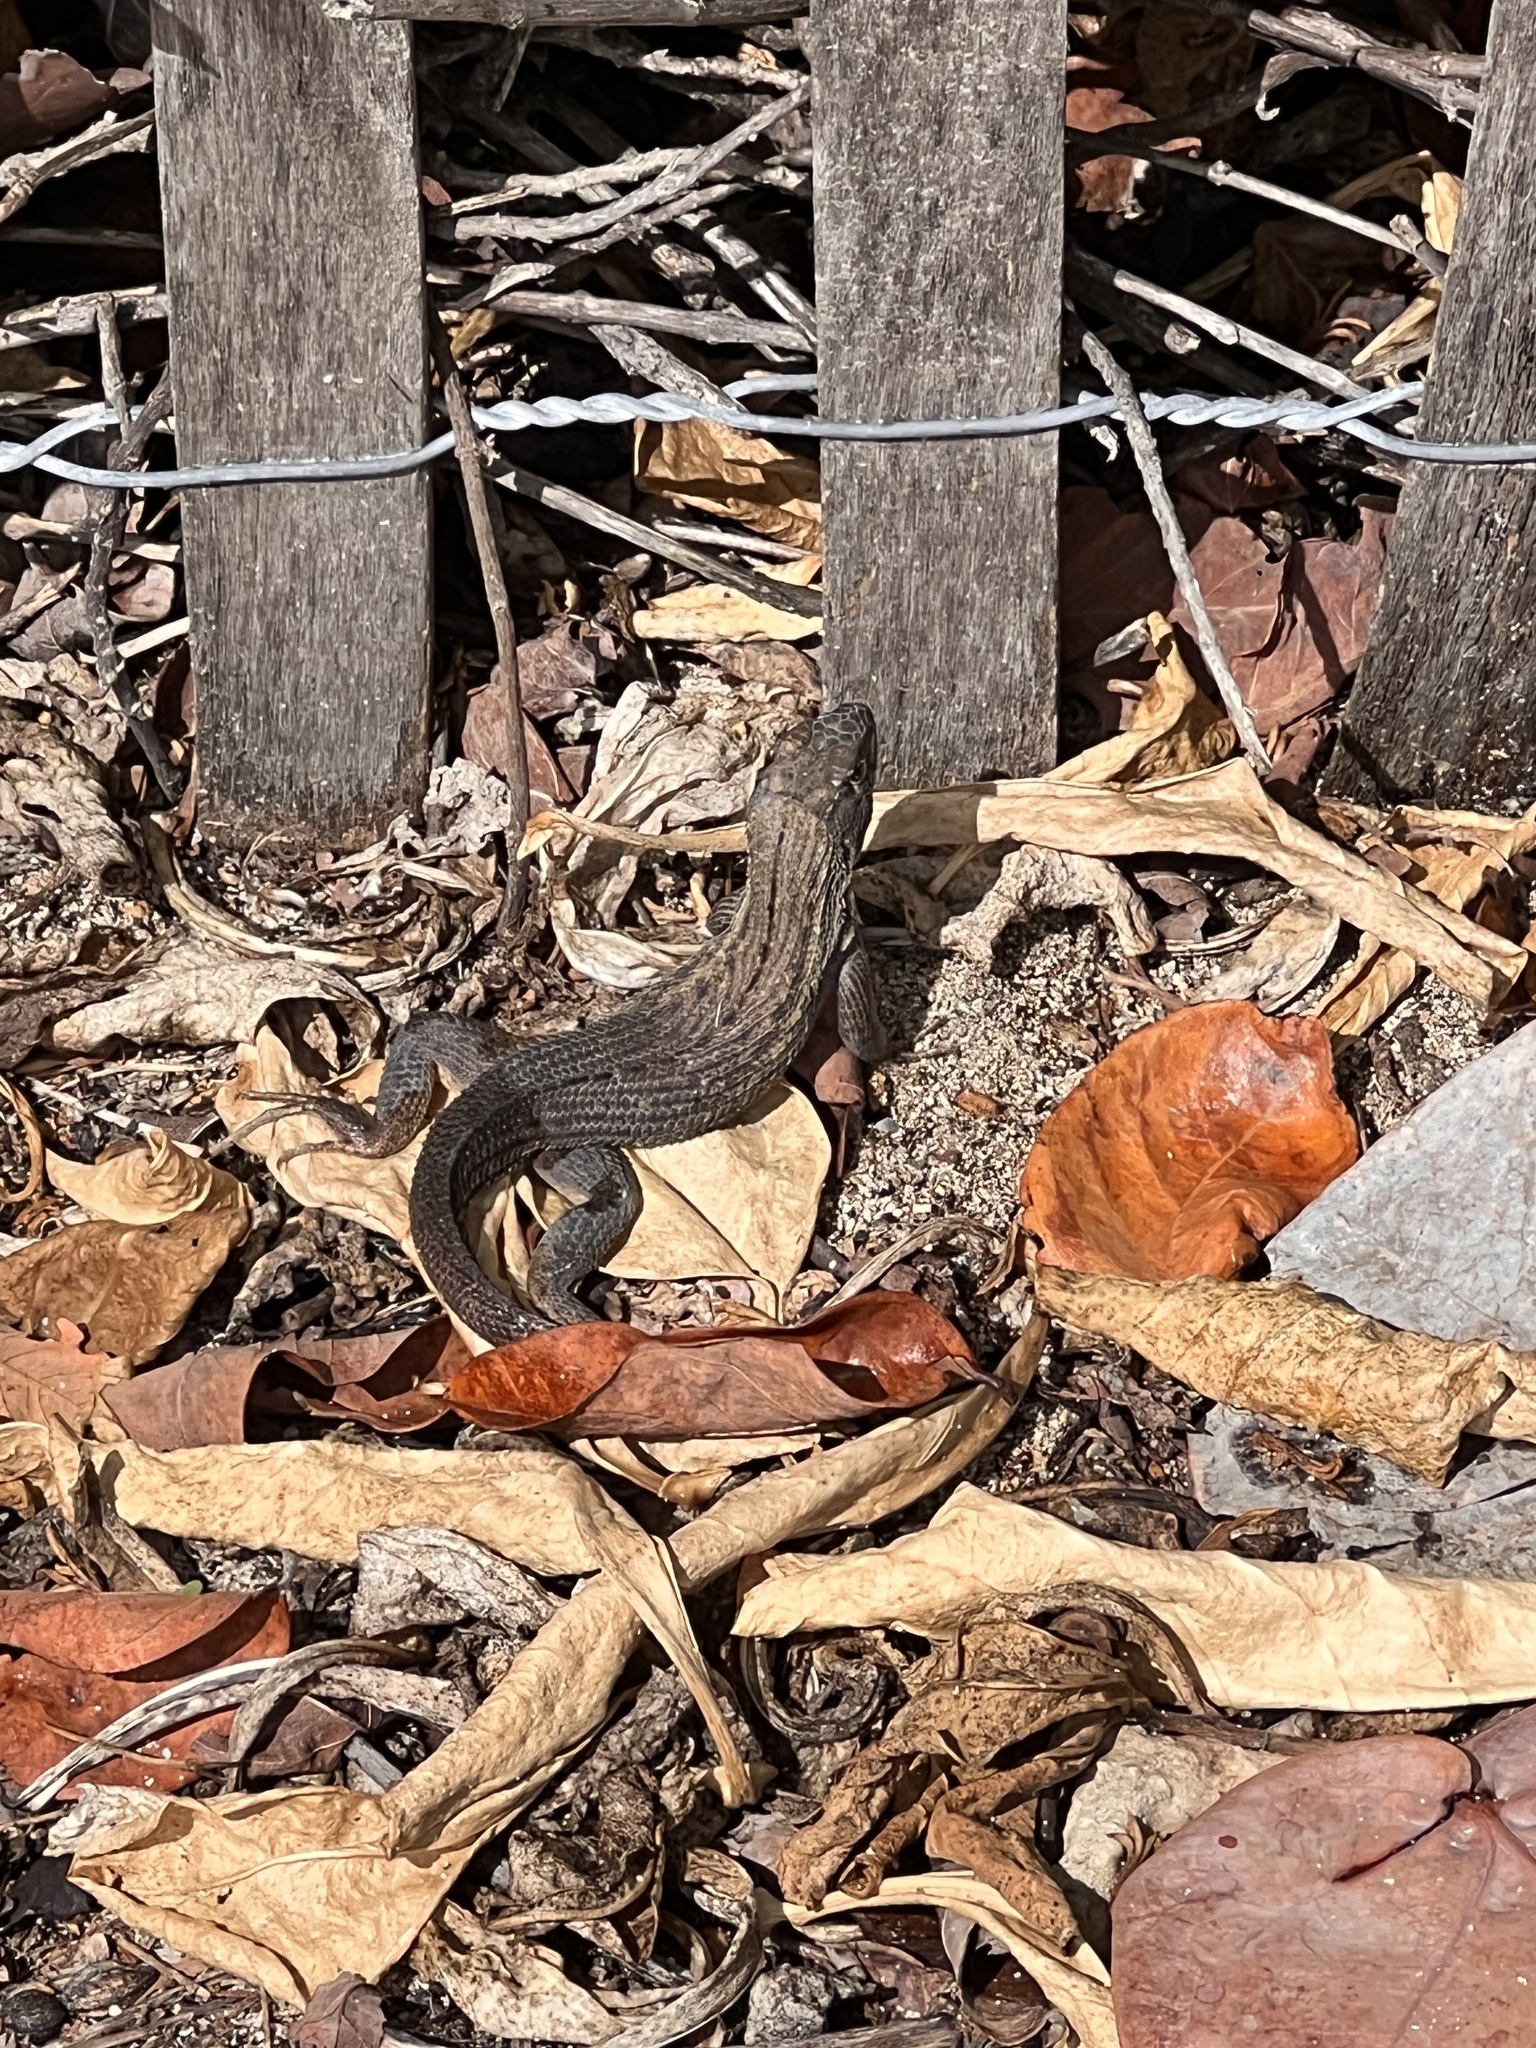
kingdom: Animalia
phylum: Chordata
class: Squamata
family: Leiocephalidae
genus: Leiocephalus
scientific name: Leiocephalus carinatus
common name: Northern curly-tailed lizard
